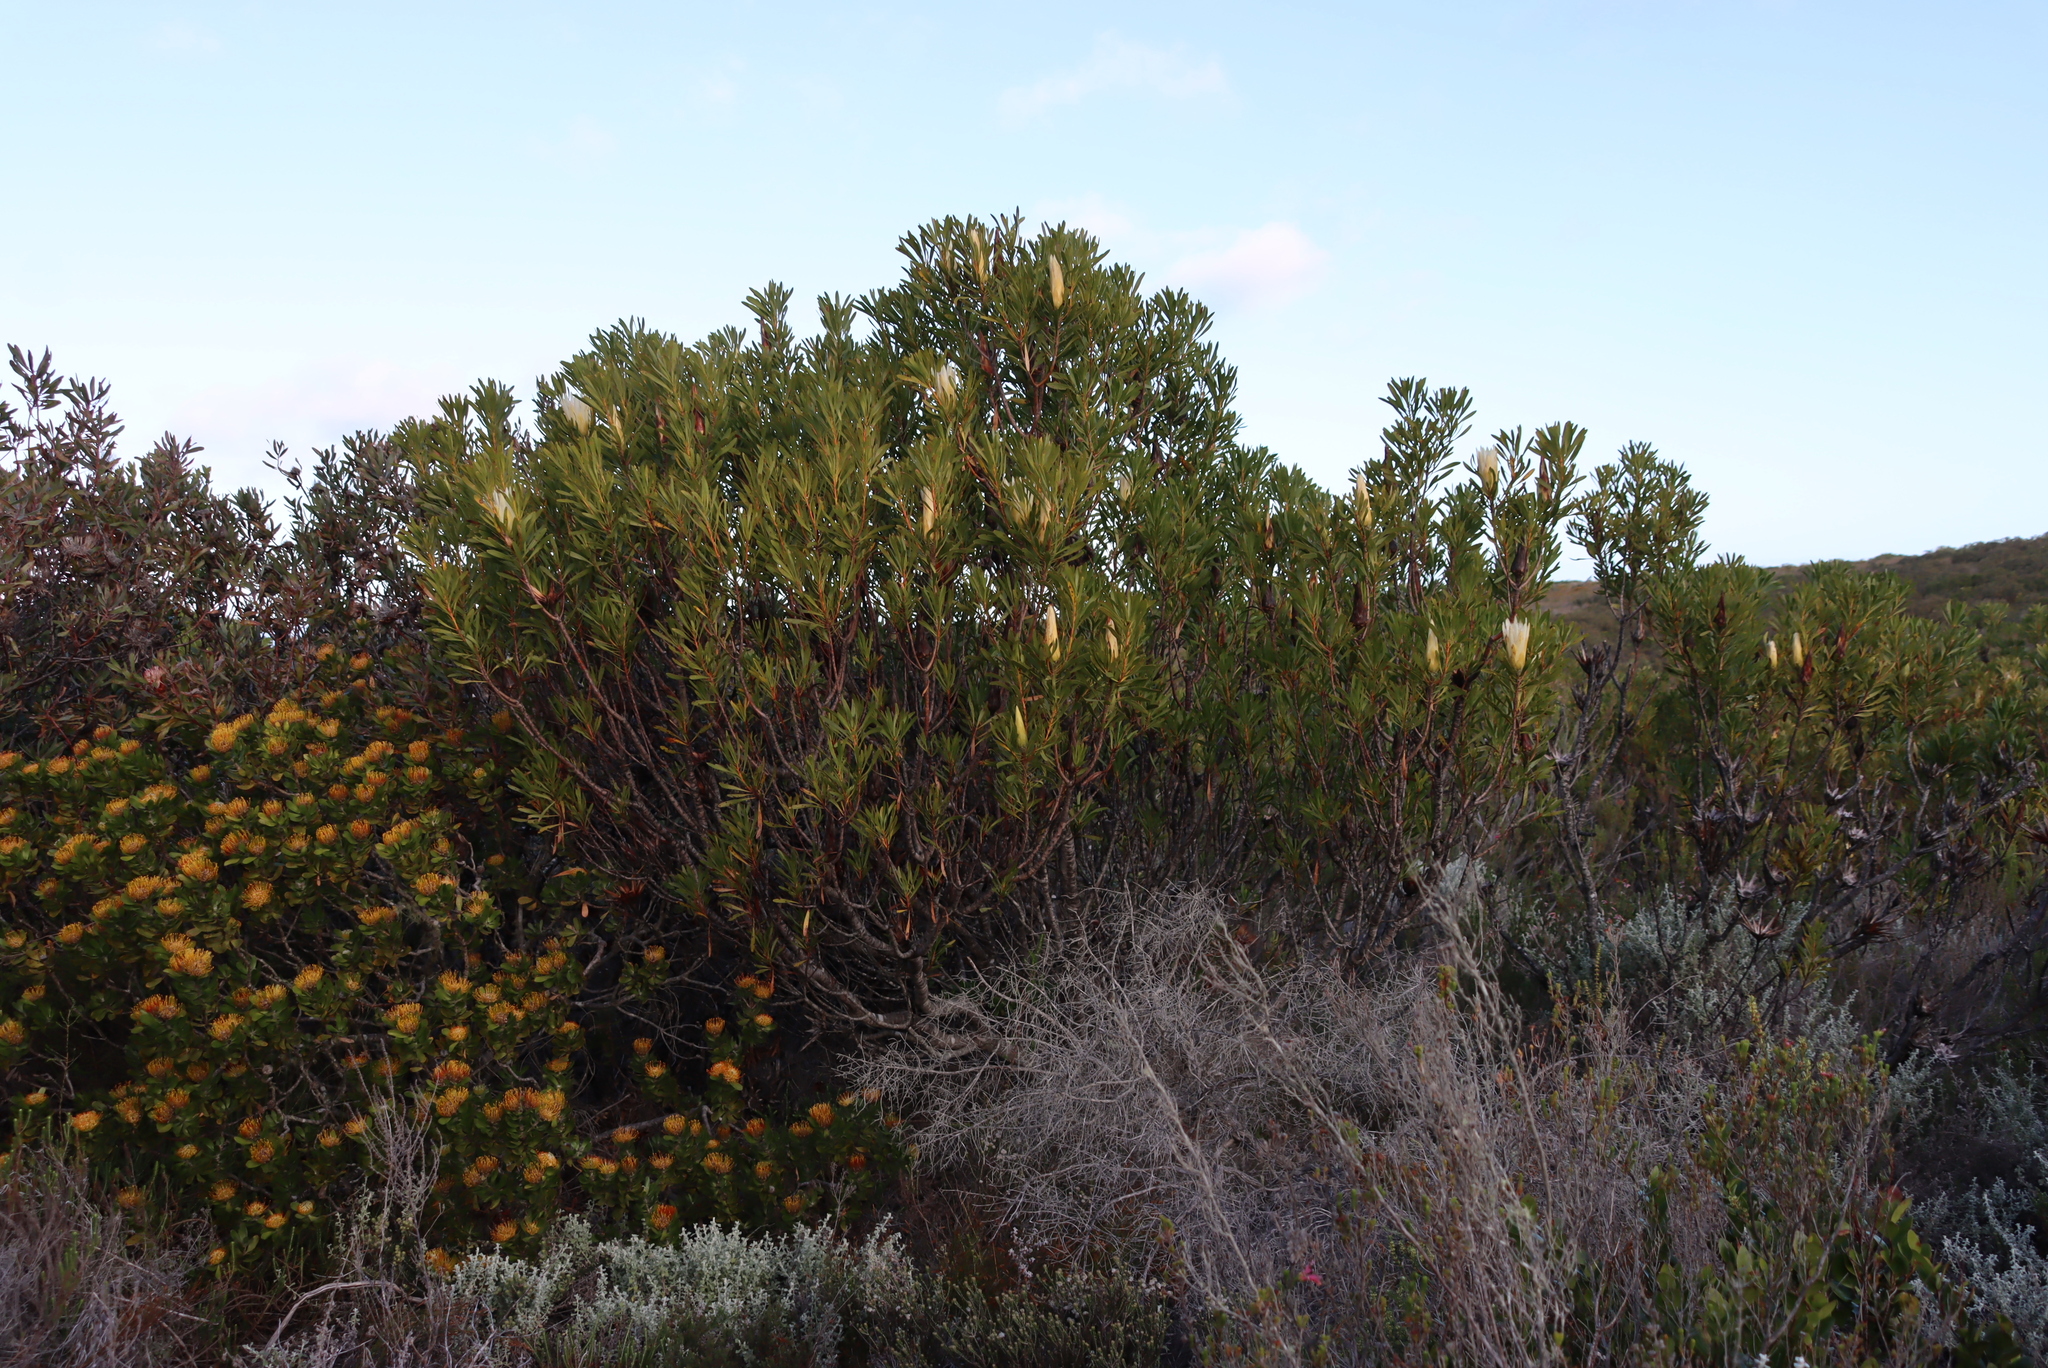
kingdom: Plantae
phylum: Tracheophyta
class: Magnoliopsida
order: Proteales
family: Proteaceae
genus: Protea
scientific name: Protea repens
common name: Sugarbush
